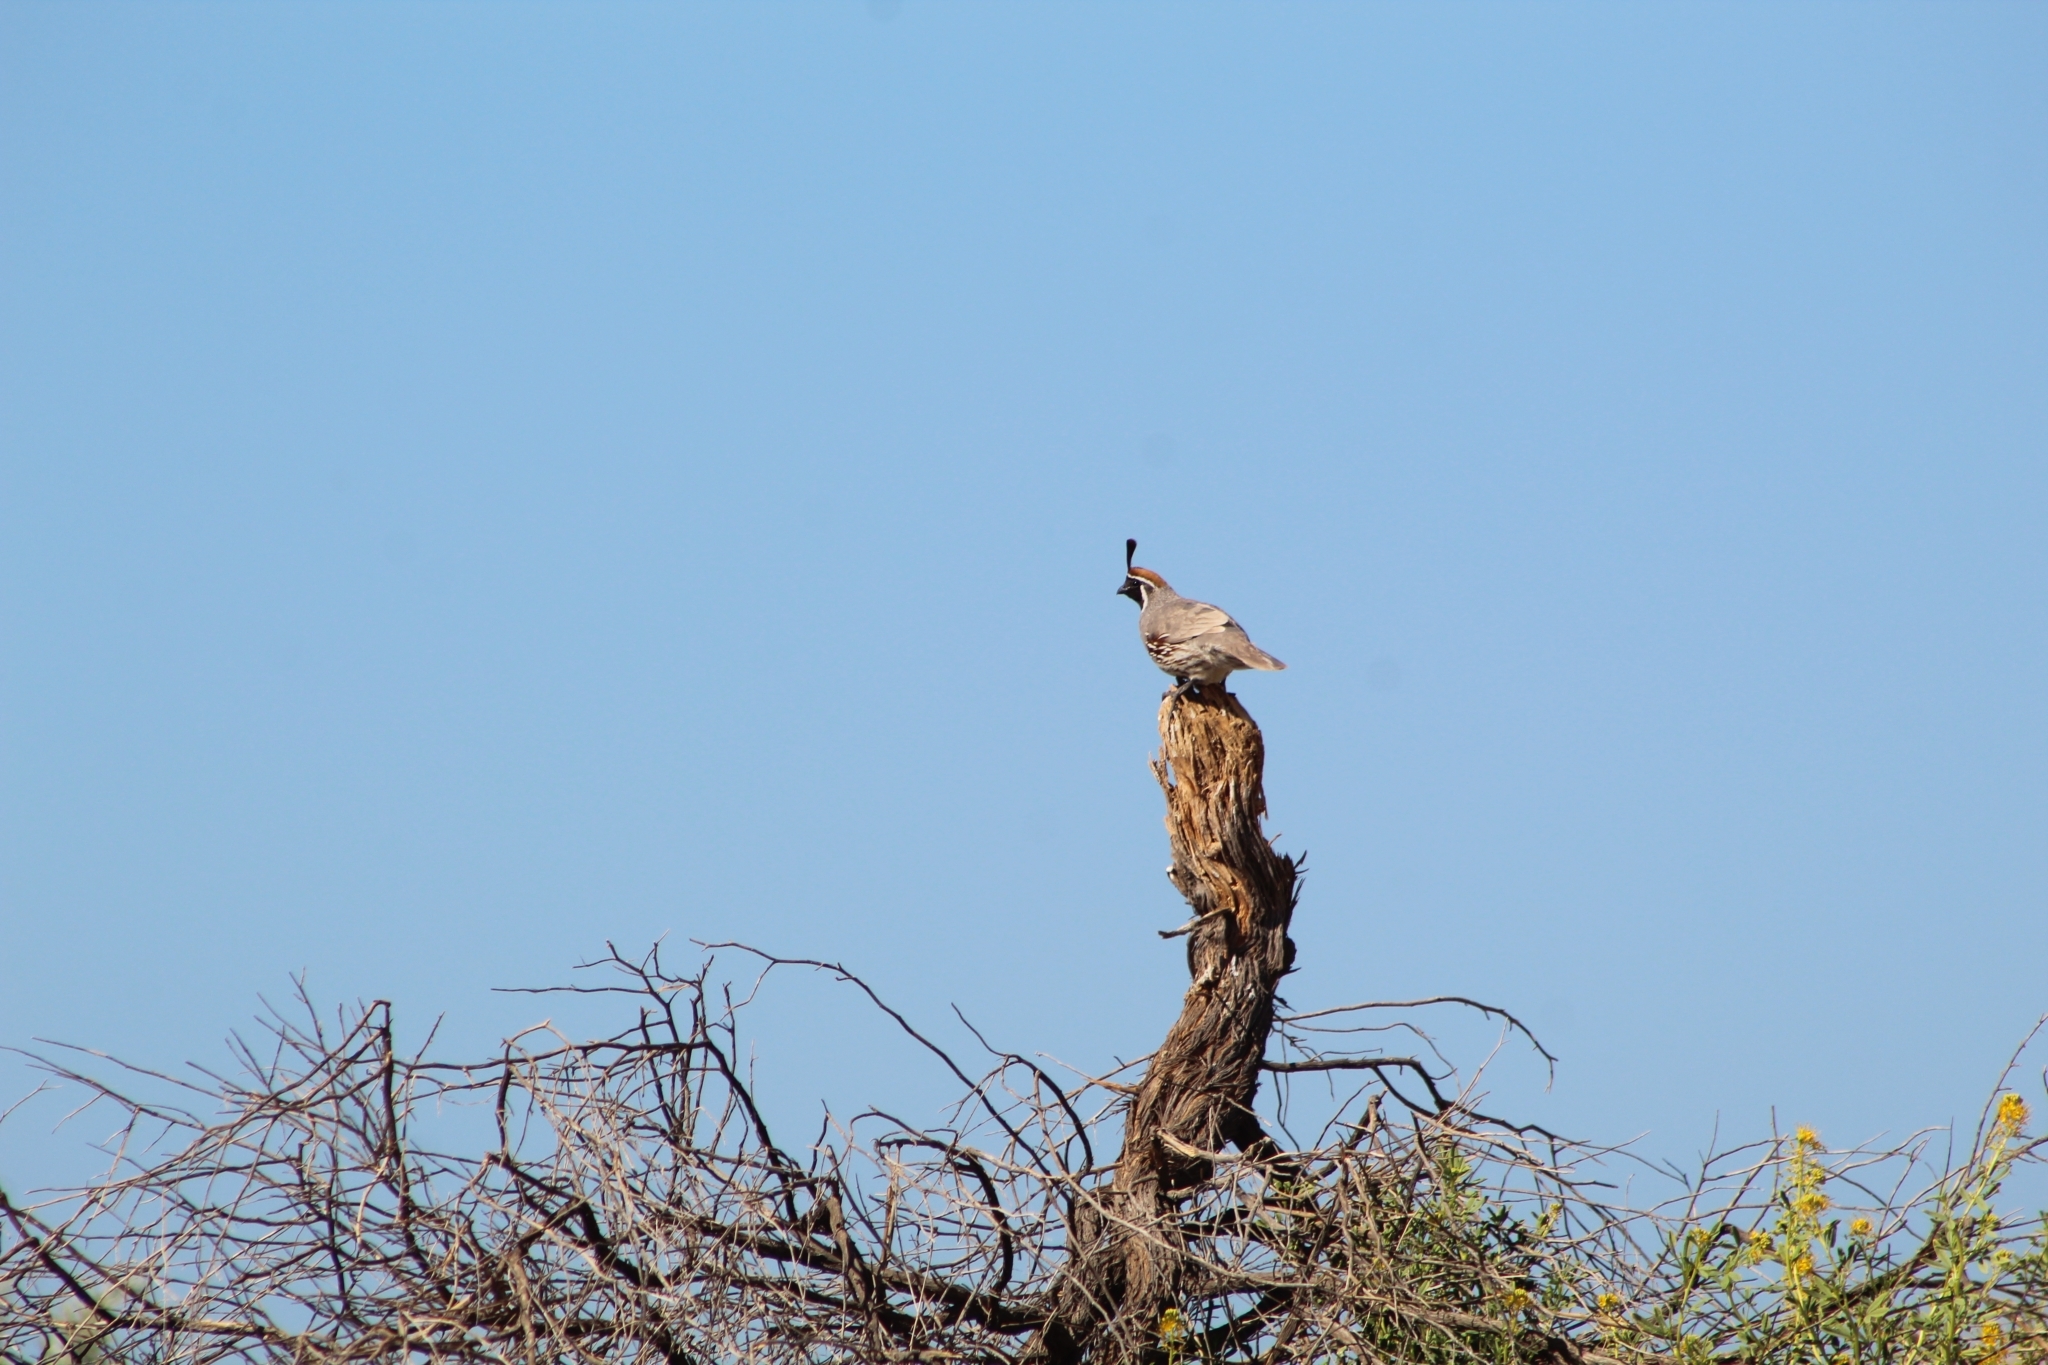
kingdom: Animalia
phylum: Chordata
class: Aves
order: Galliformes
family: Odontophoridae
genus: Callipepla
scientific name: Callipepla gambelii
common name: Gambel's quail
